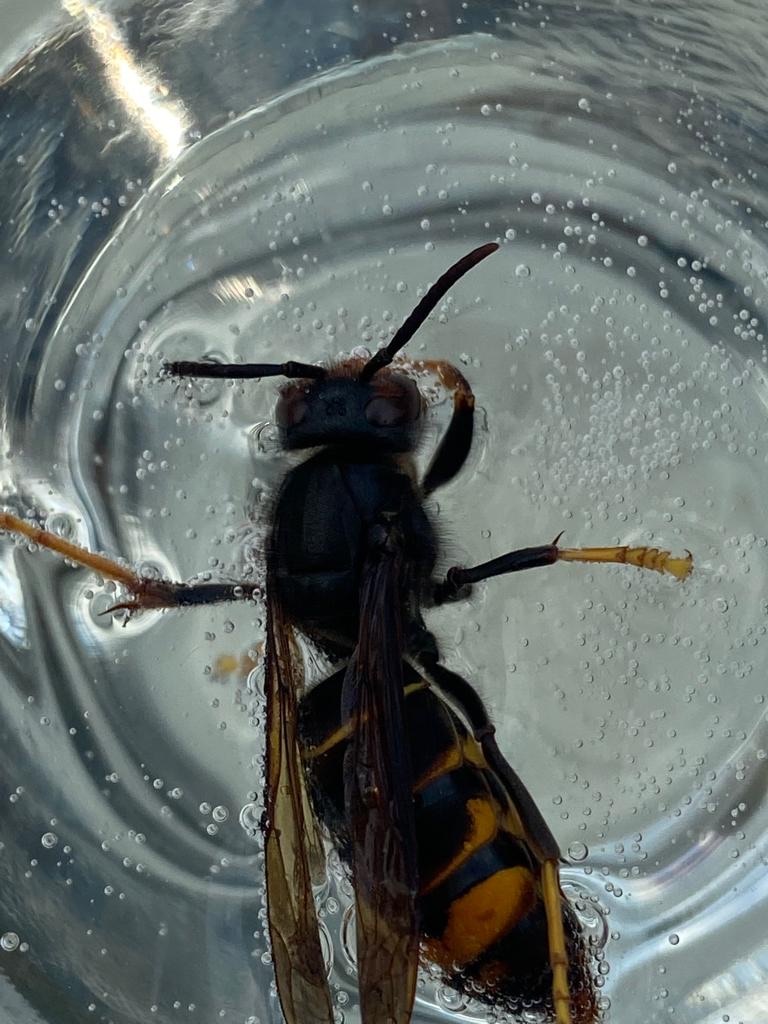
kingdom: Animalia
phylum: Arthropoda
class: Insecta
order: Hymenoptera
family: Vespidae
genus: Vespa
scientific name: Vespa velutina
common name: Asian hornet
